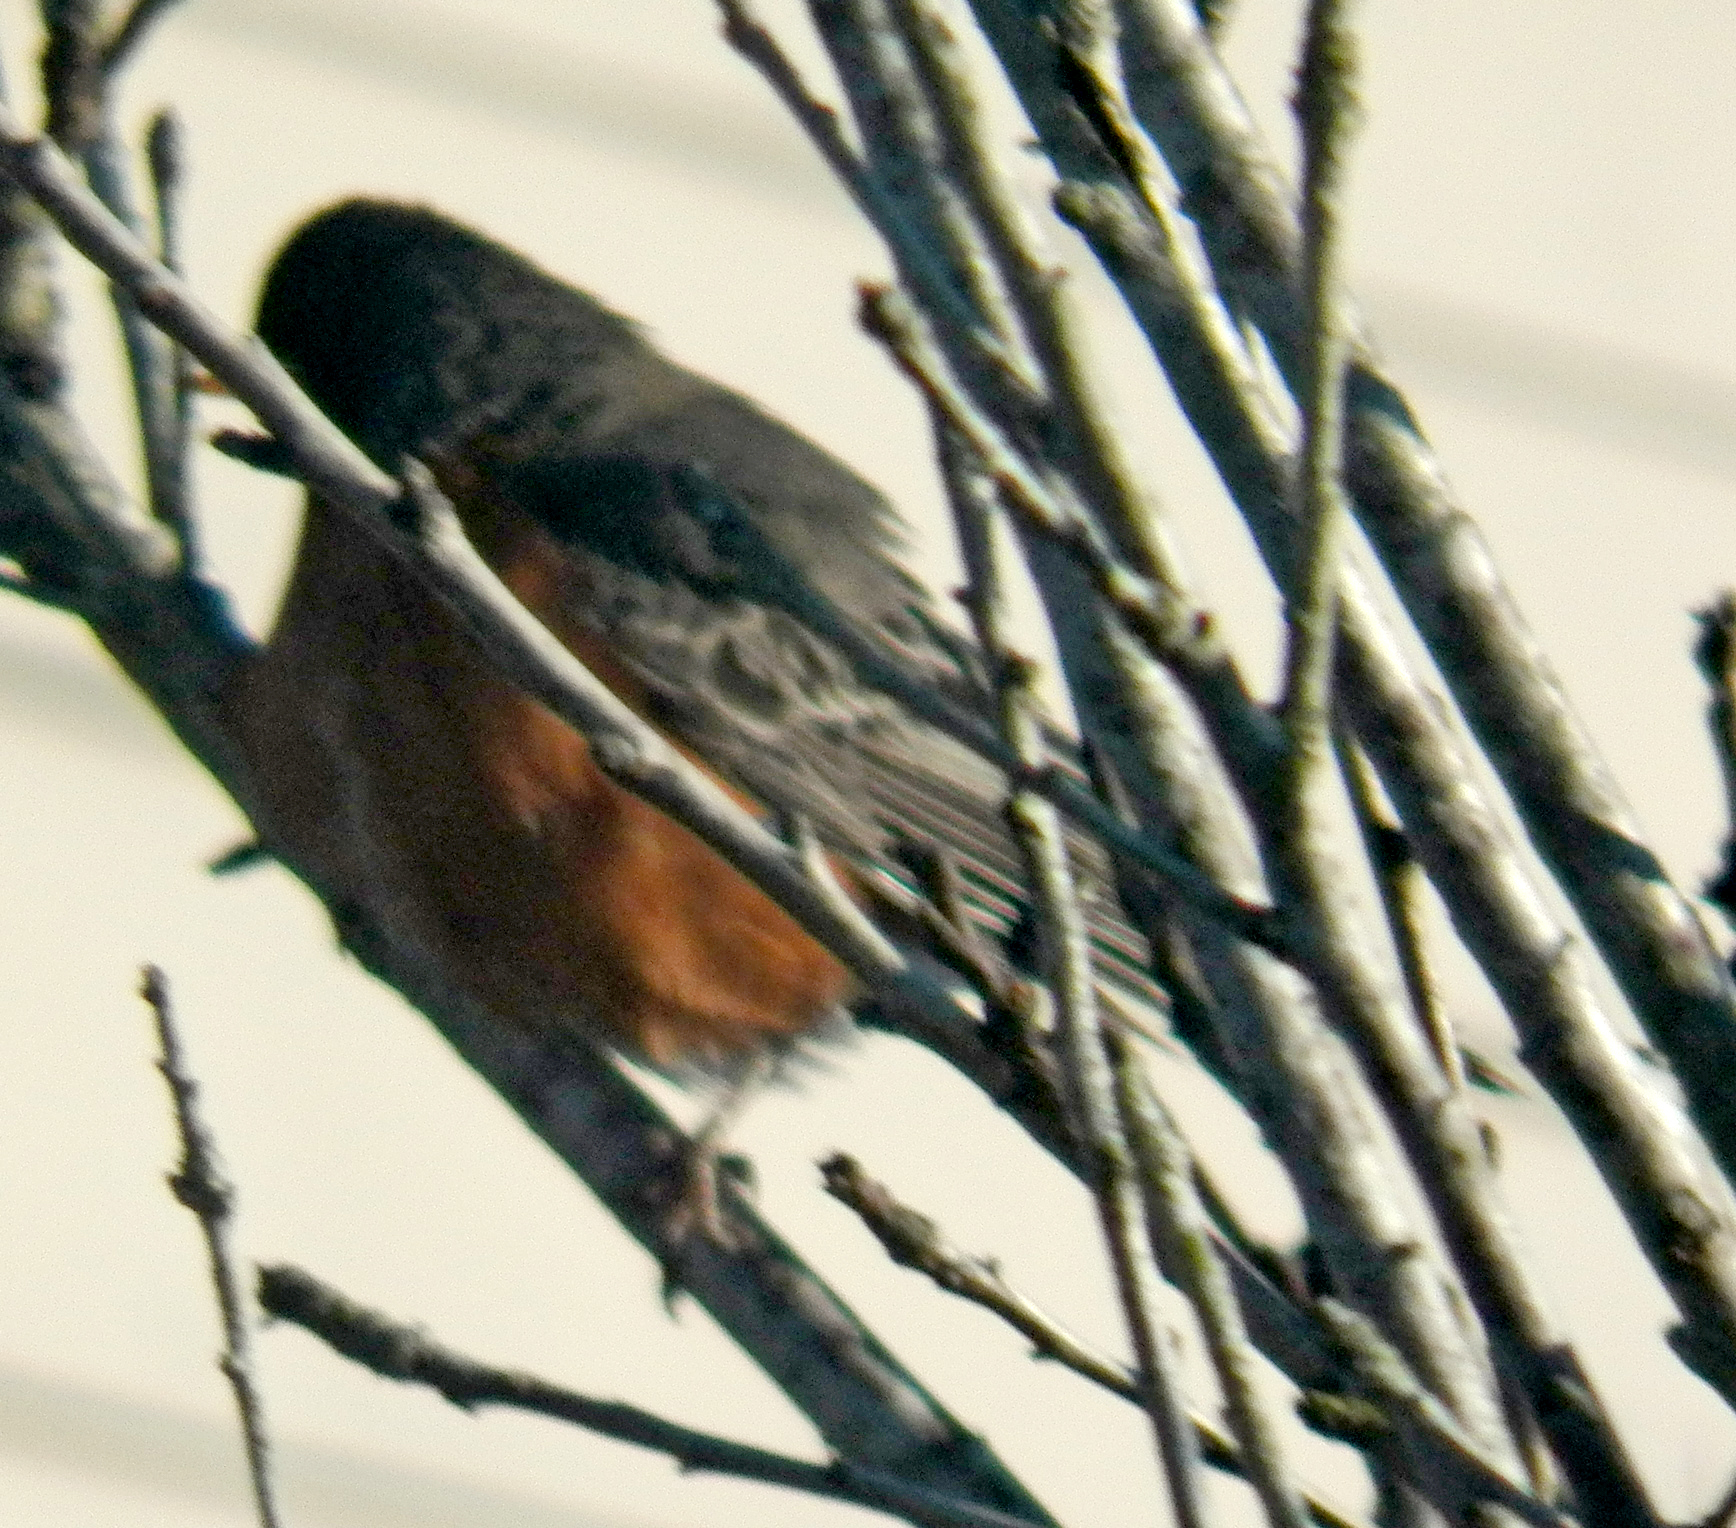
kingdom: Animalia
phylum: Chordata
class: Aves
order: Passeriformes
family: Turdidae
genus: Turdus
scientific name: Turdus migratorius
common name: American robin
